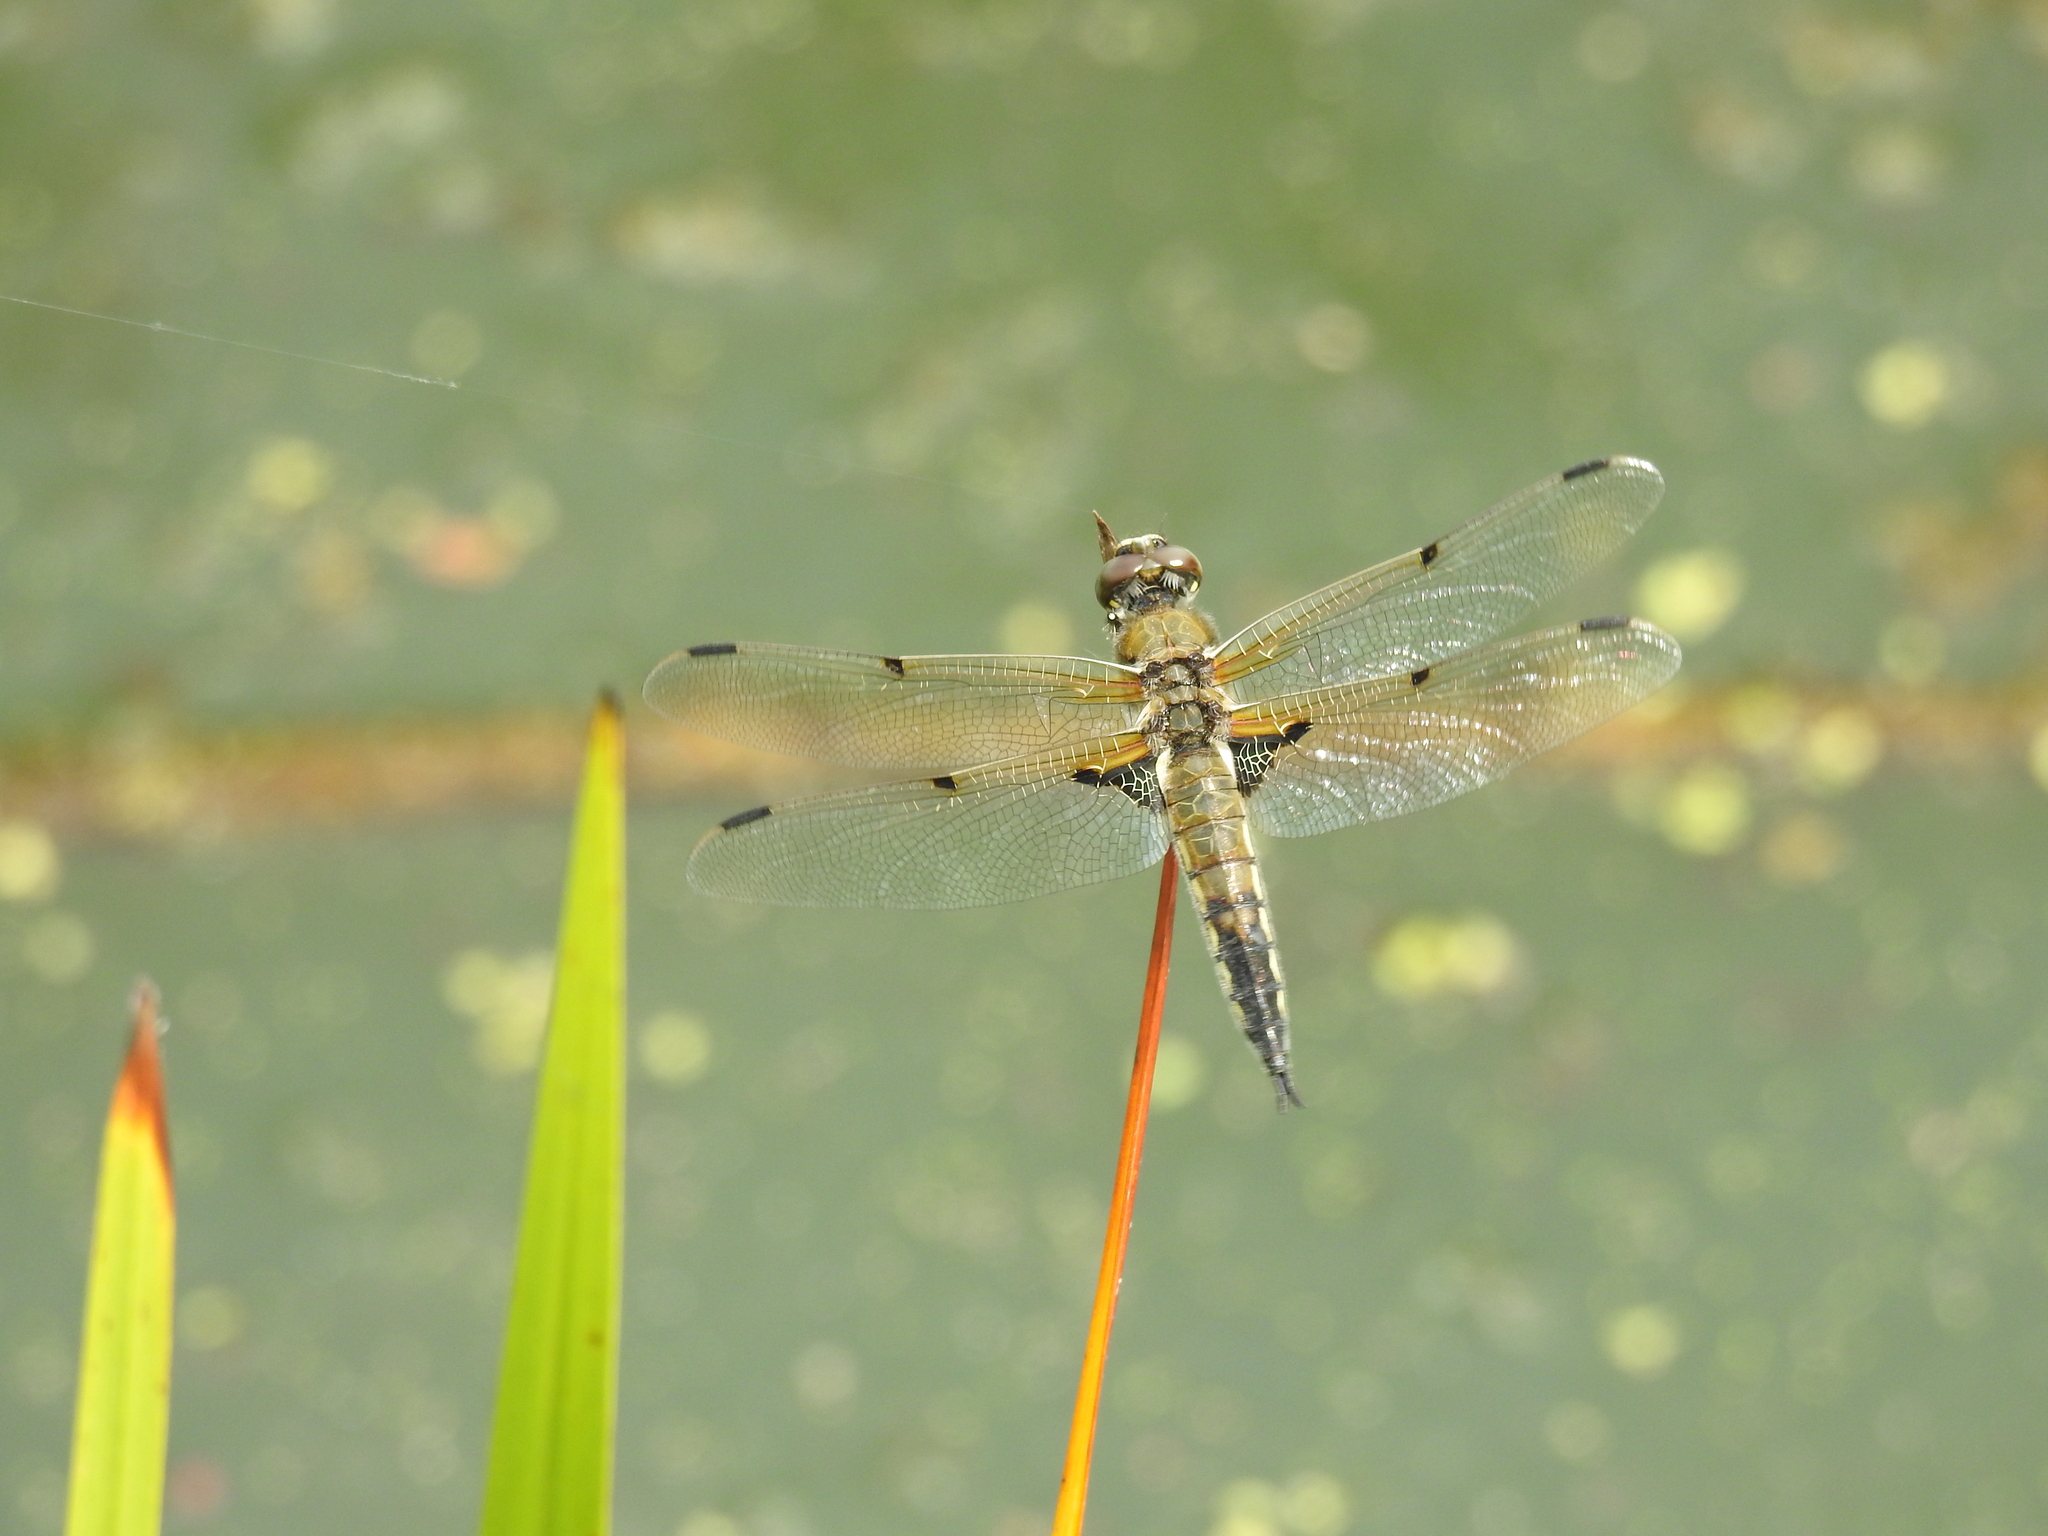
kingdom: Animalia
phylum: Arthropoda
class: Insecta
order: Odonata
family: Libellulidae
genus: Libellula
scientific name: Libellula quadrimaculata
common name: Four-spotted chaser
